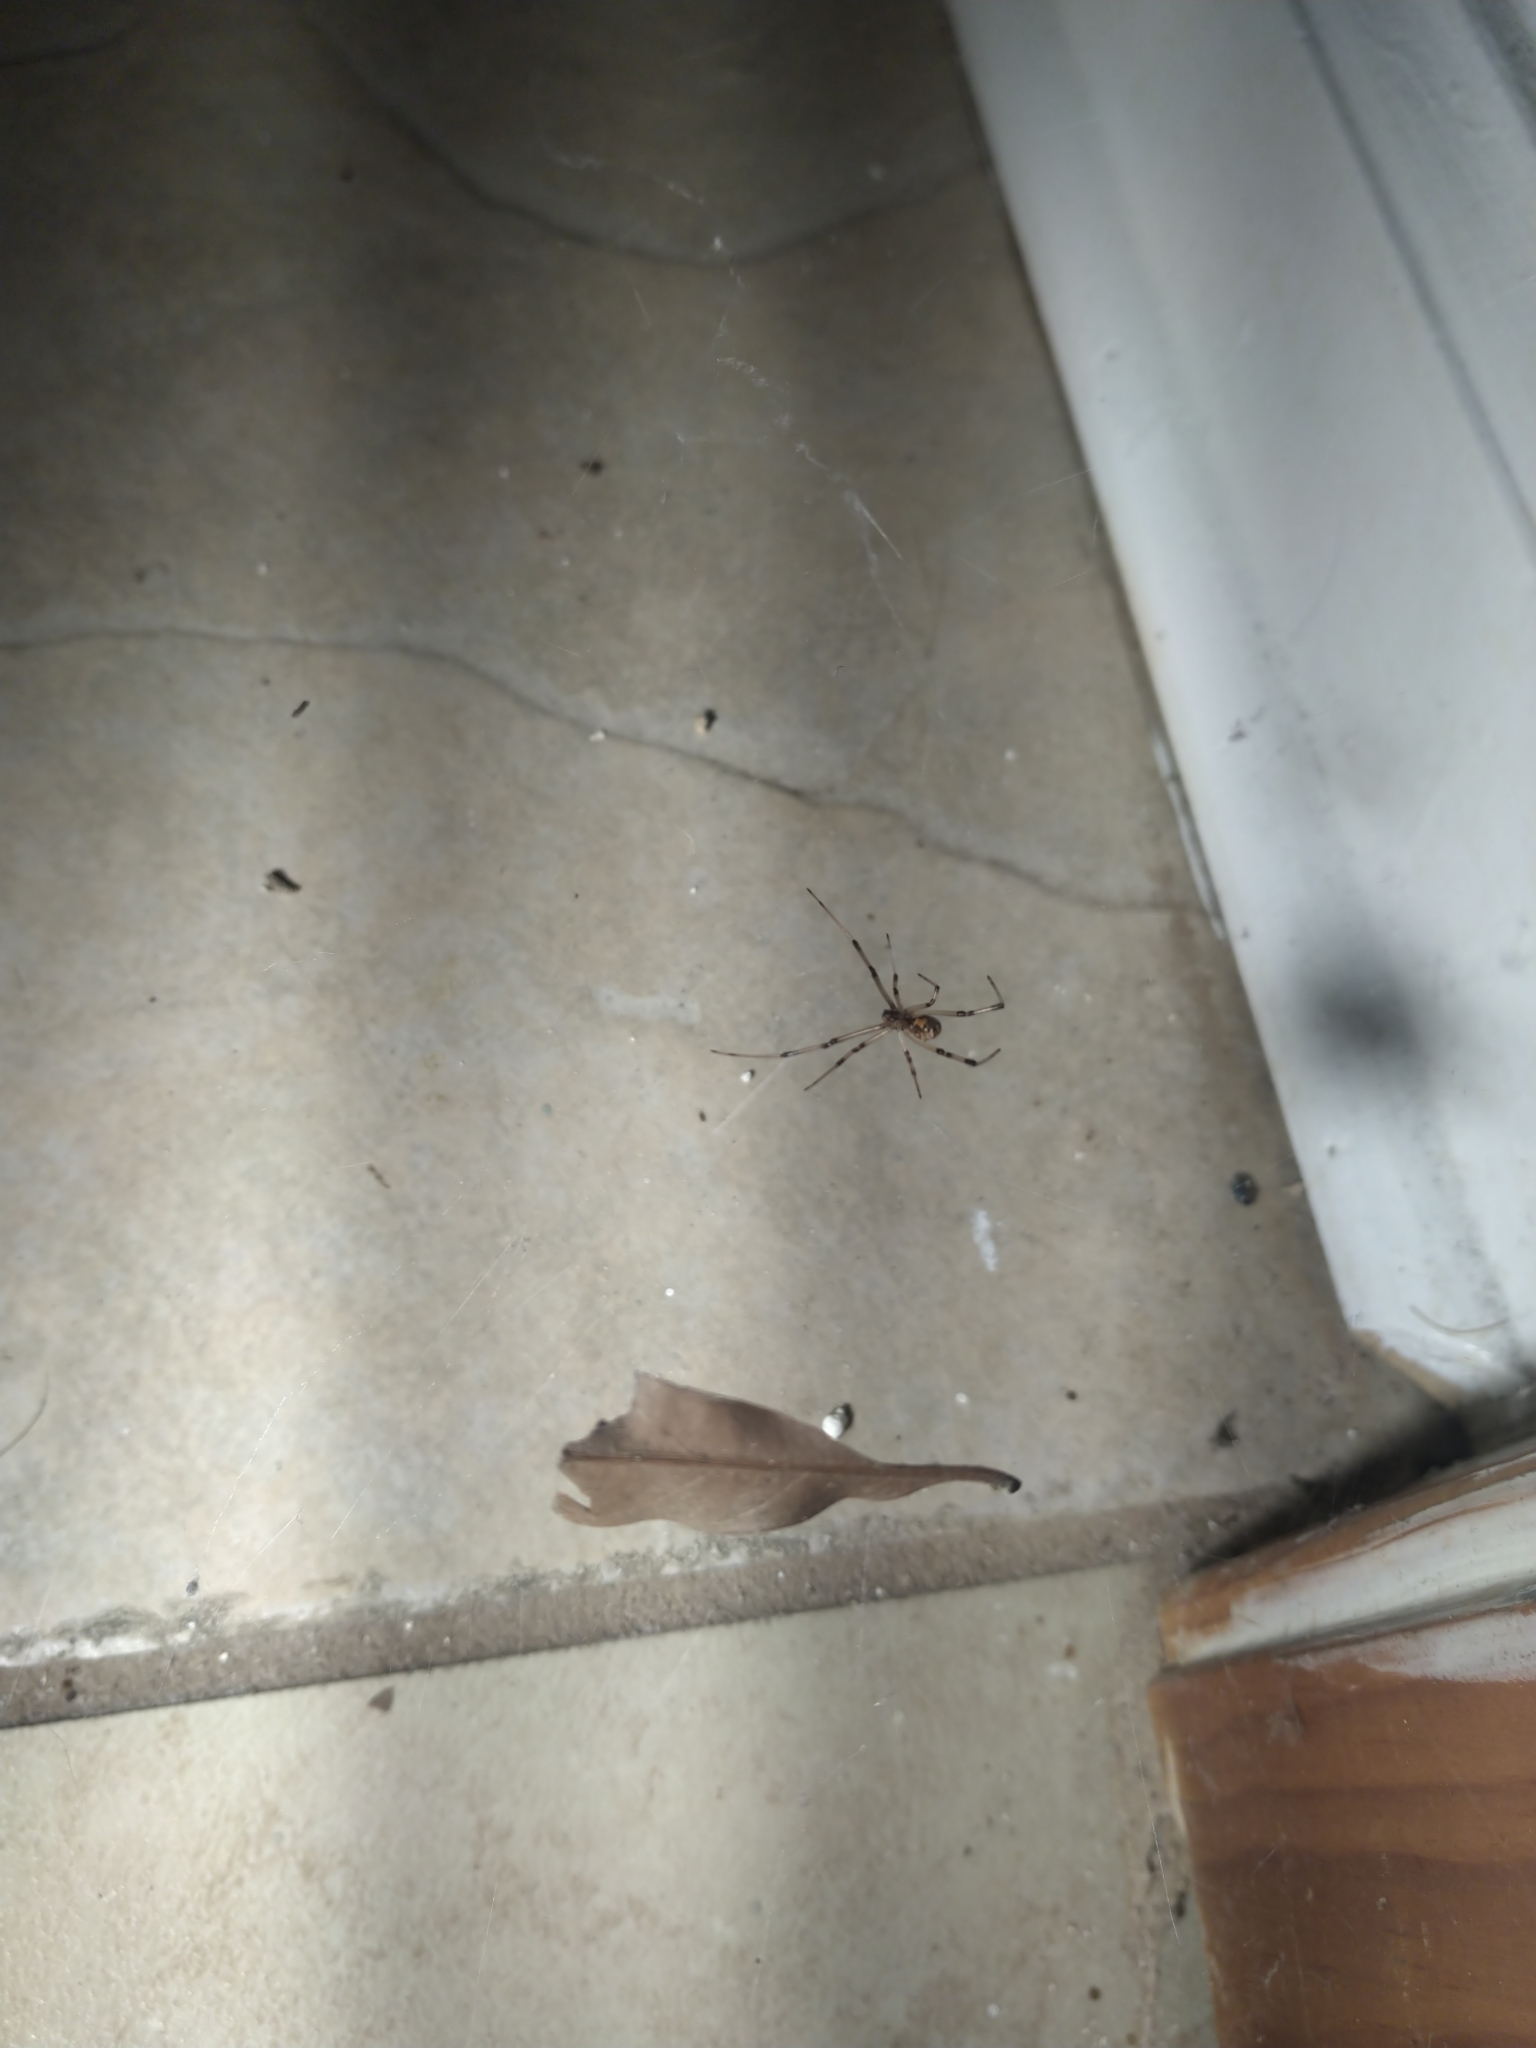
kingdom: Animalia
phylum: Arthropoda
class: Arachnida
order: Araneae
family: Theridiidae
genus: Latrodectus
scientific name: Latrodectus geometricus
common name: Brown widow spider
